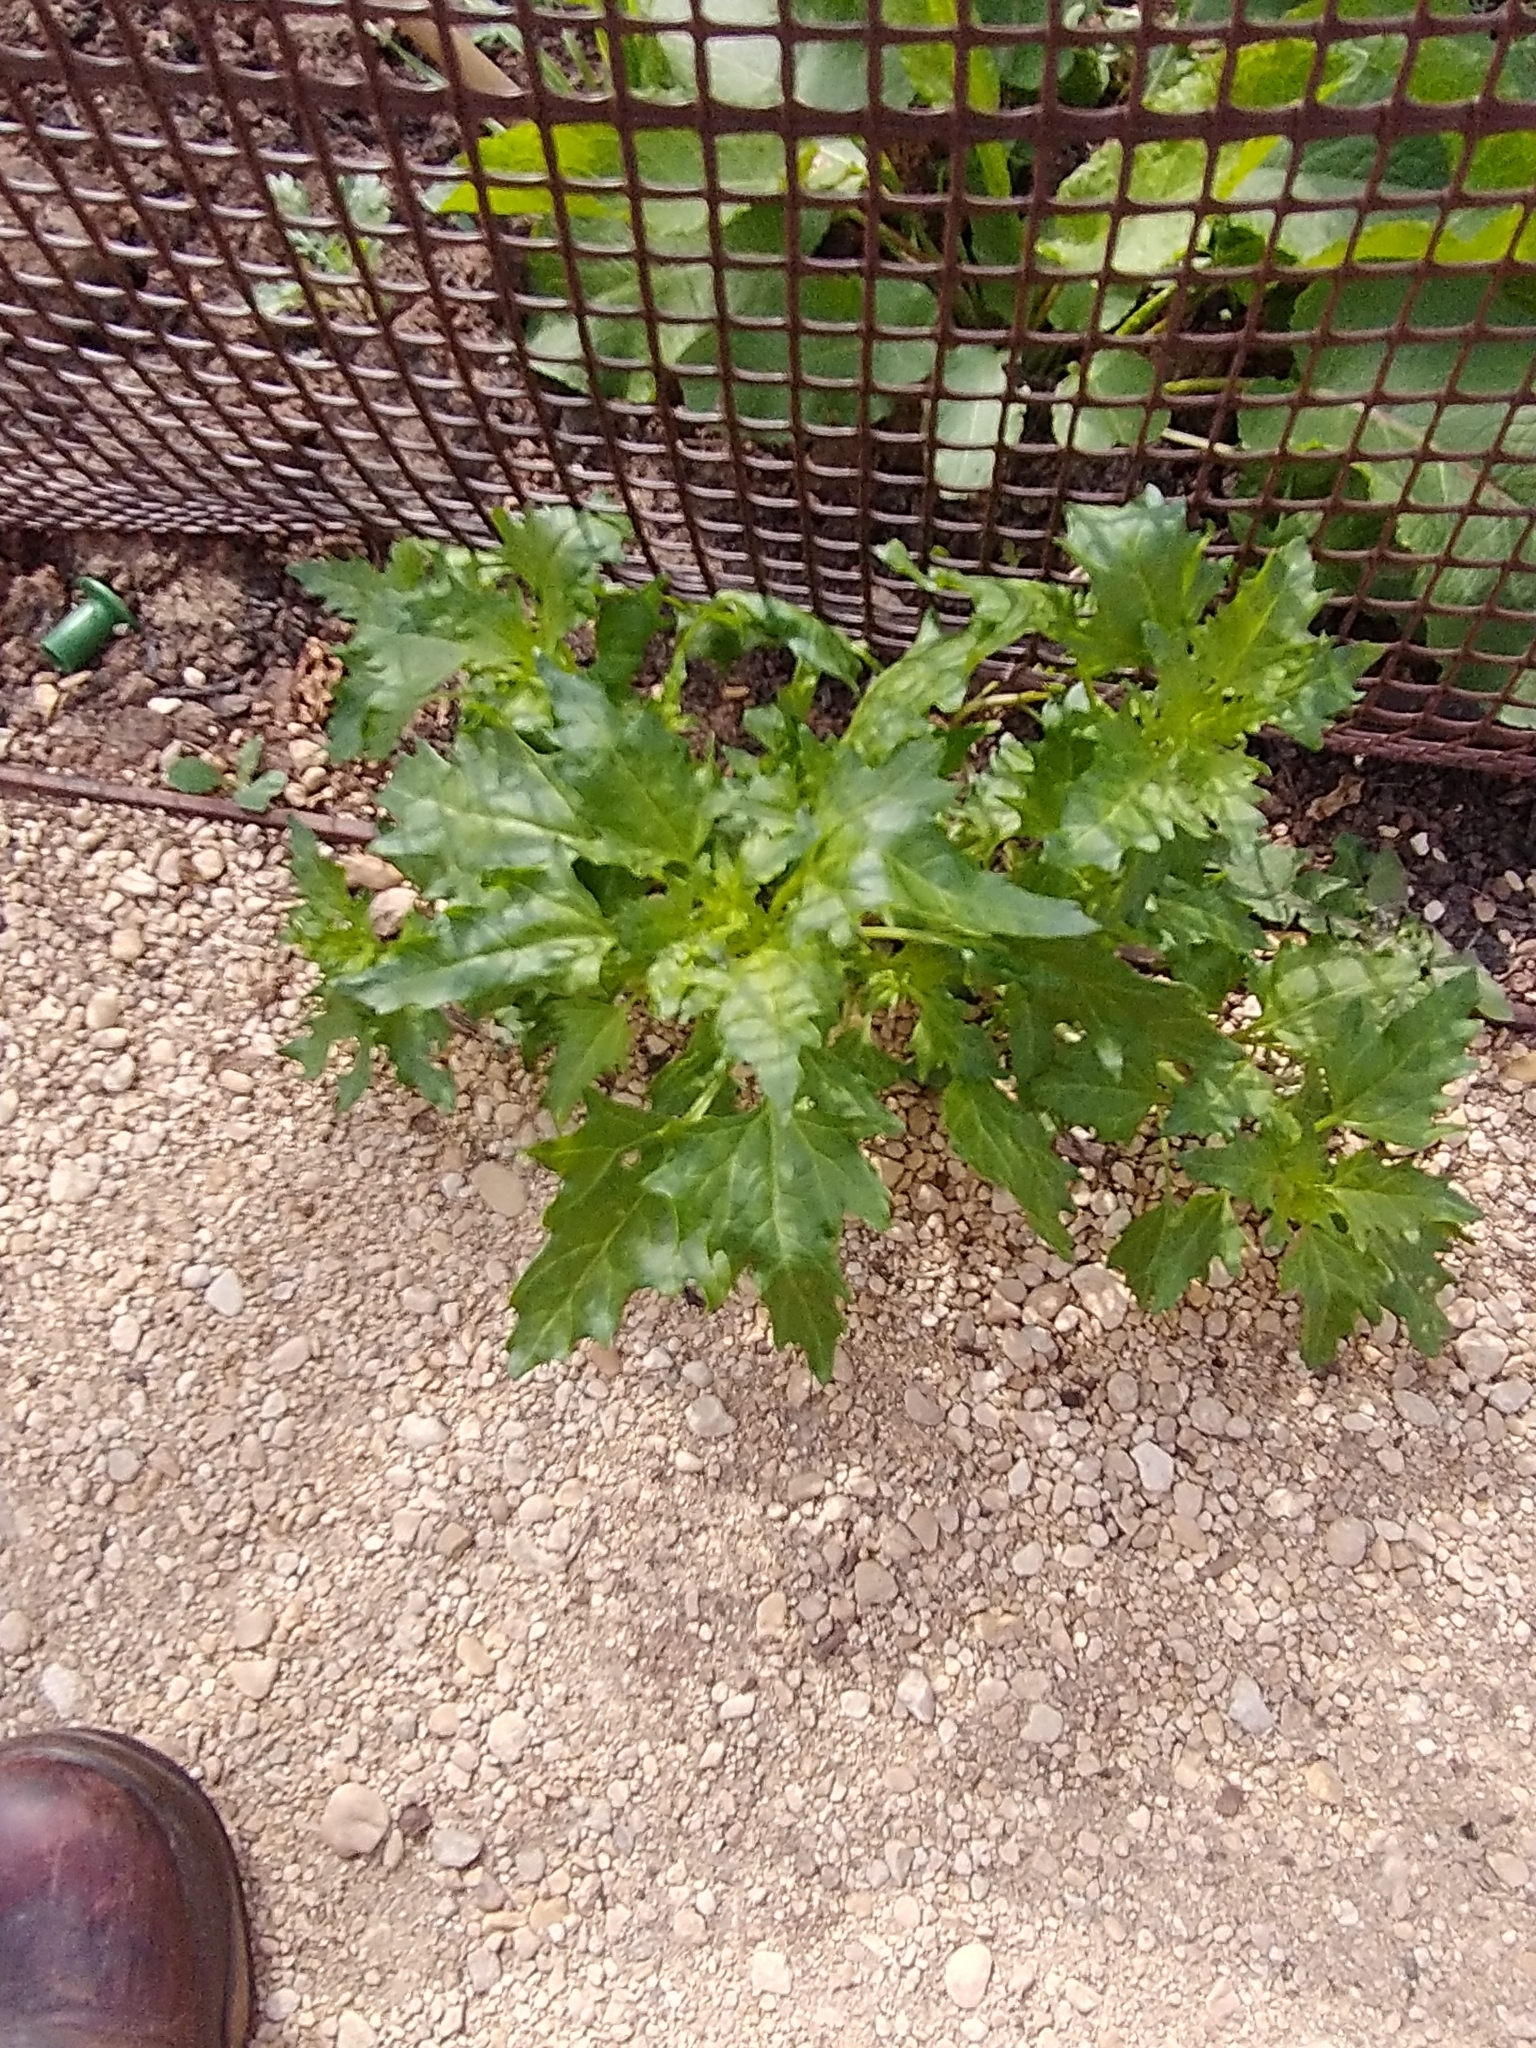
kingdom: Plantae
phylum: Tracheophyta
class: Magnoliopsida
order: Caryophyllales
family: Amaranthaceae
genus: Oxybasis
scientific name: Oxybasis rubra
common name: Red goosefoot
